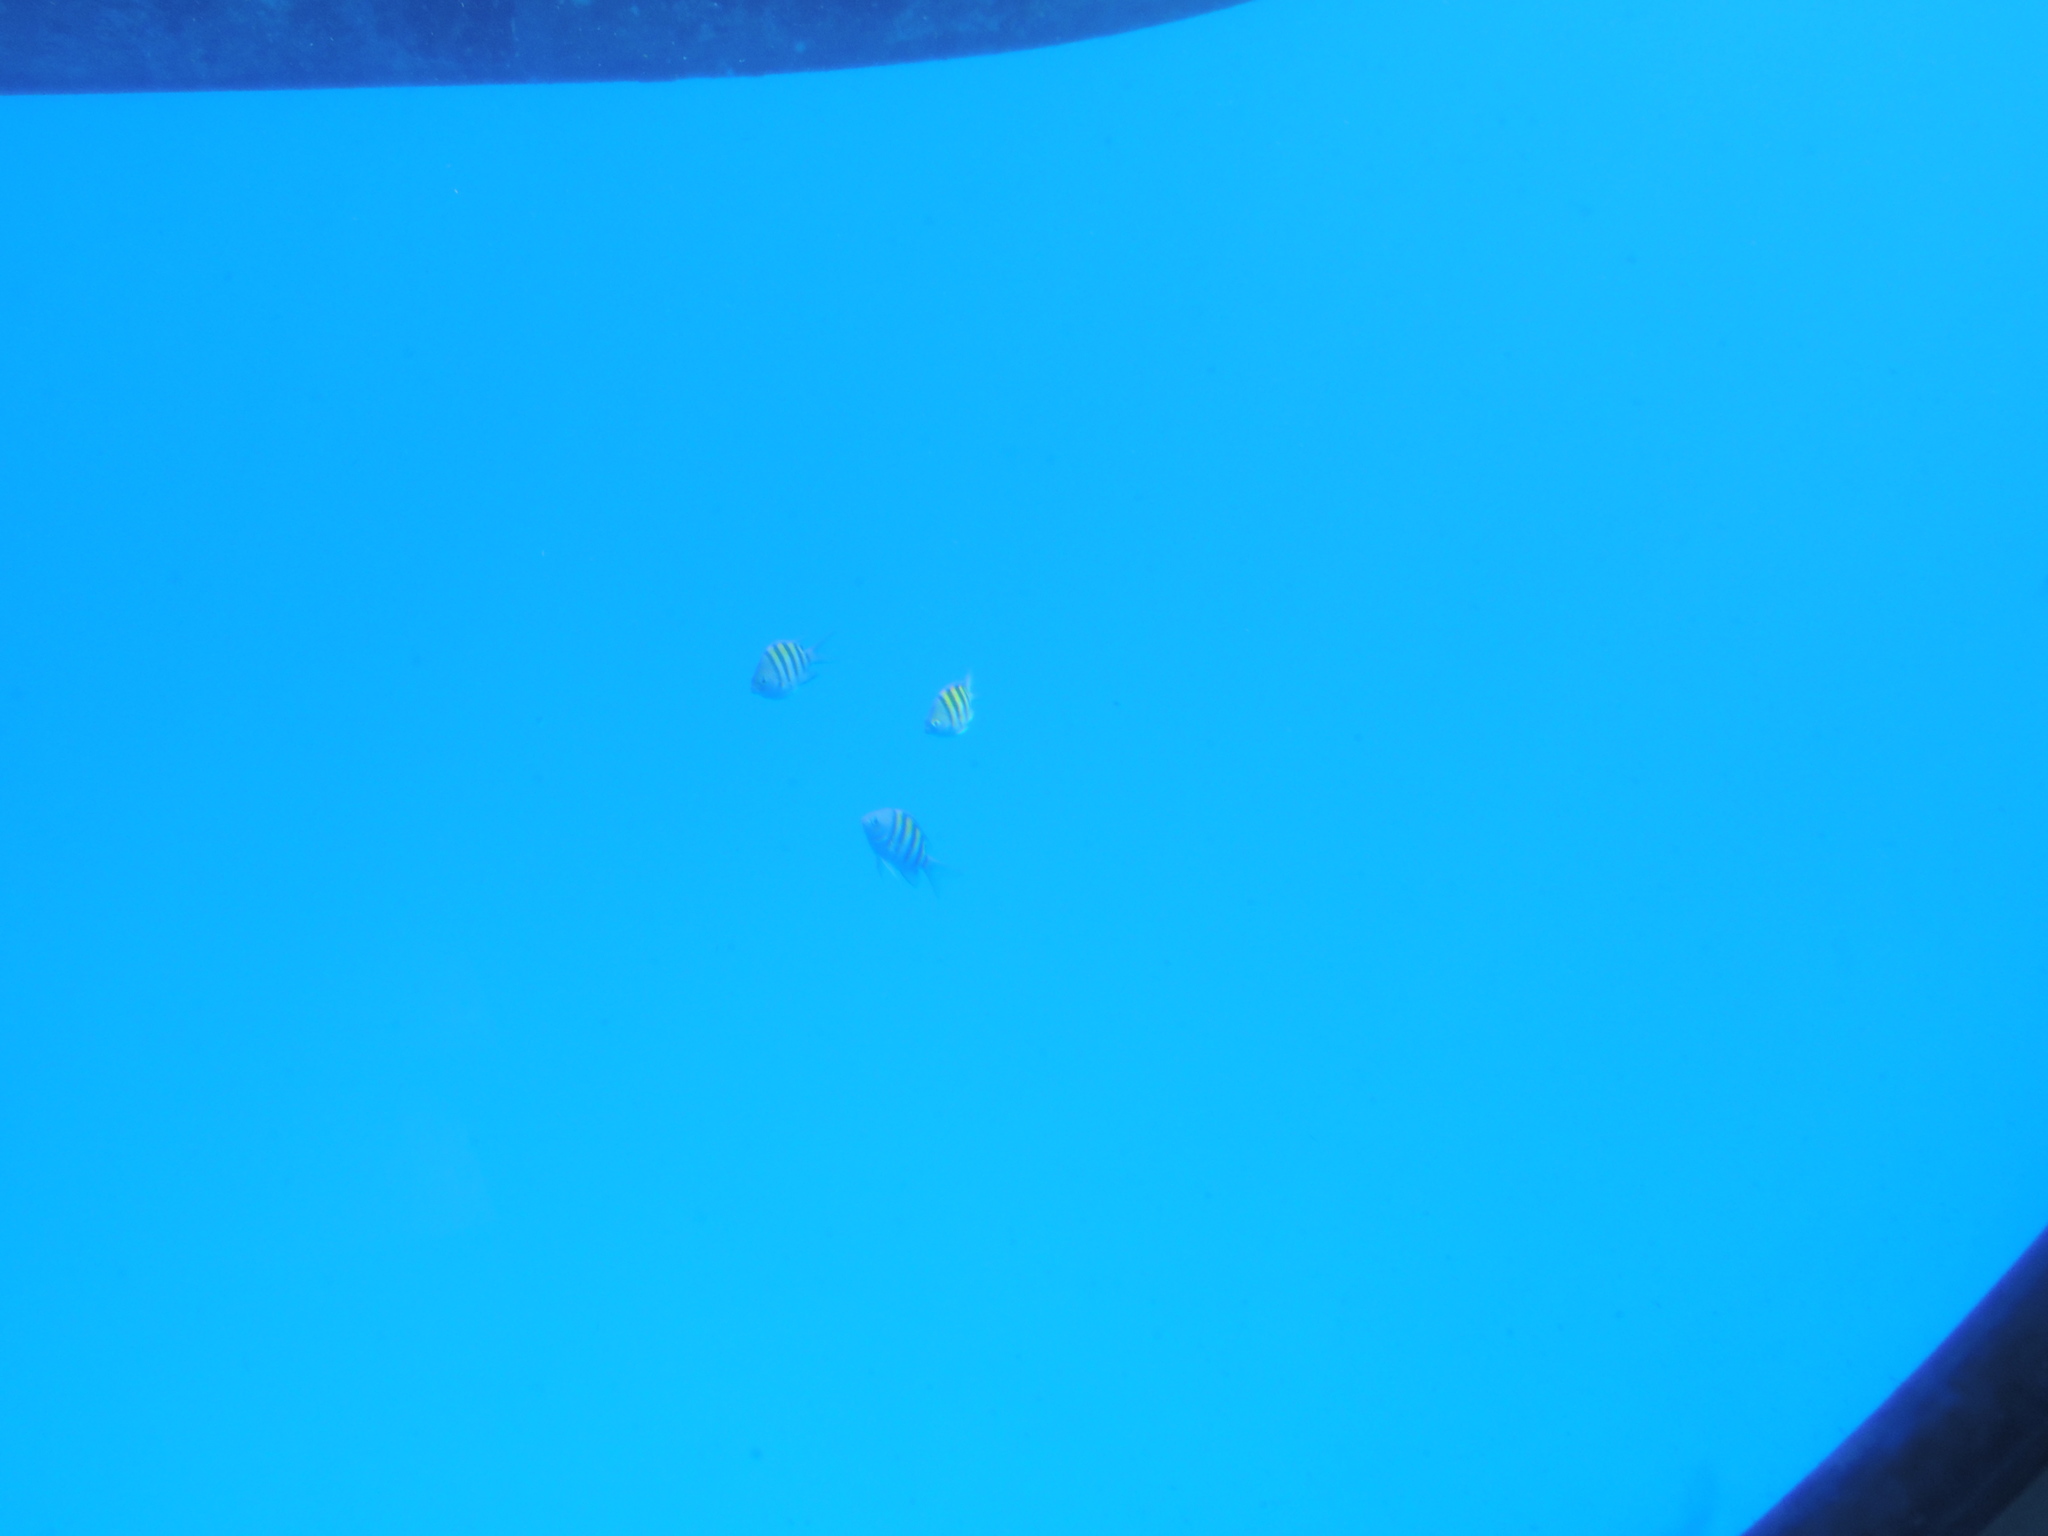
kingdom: Animalia
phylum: Chordata
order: Perciformes
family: Pomacentridae
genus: Abudefduf
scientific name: Abudefduf saxatilis
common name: Sergeant major
